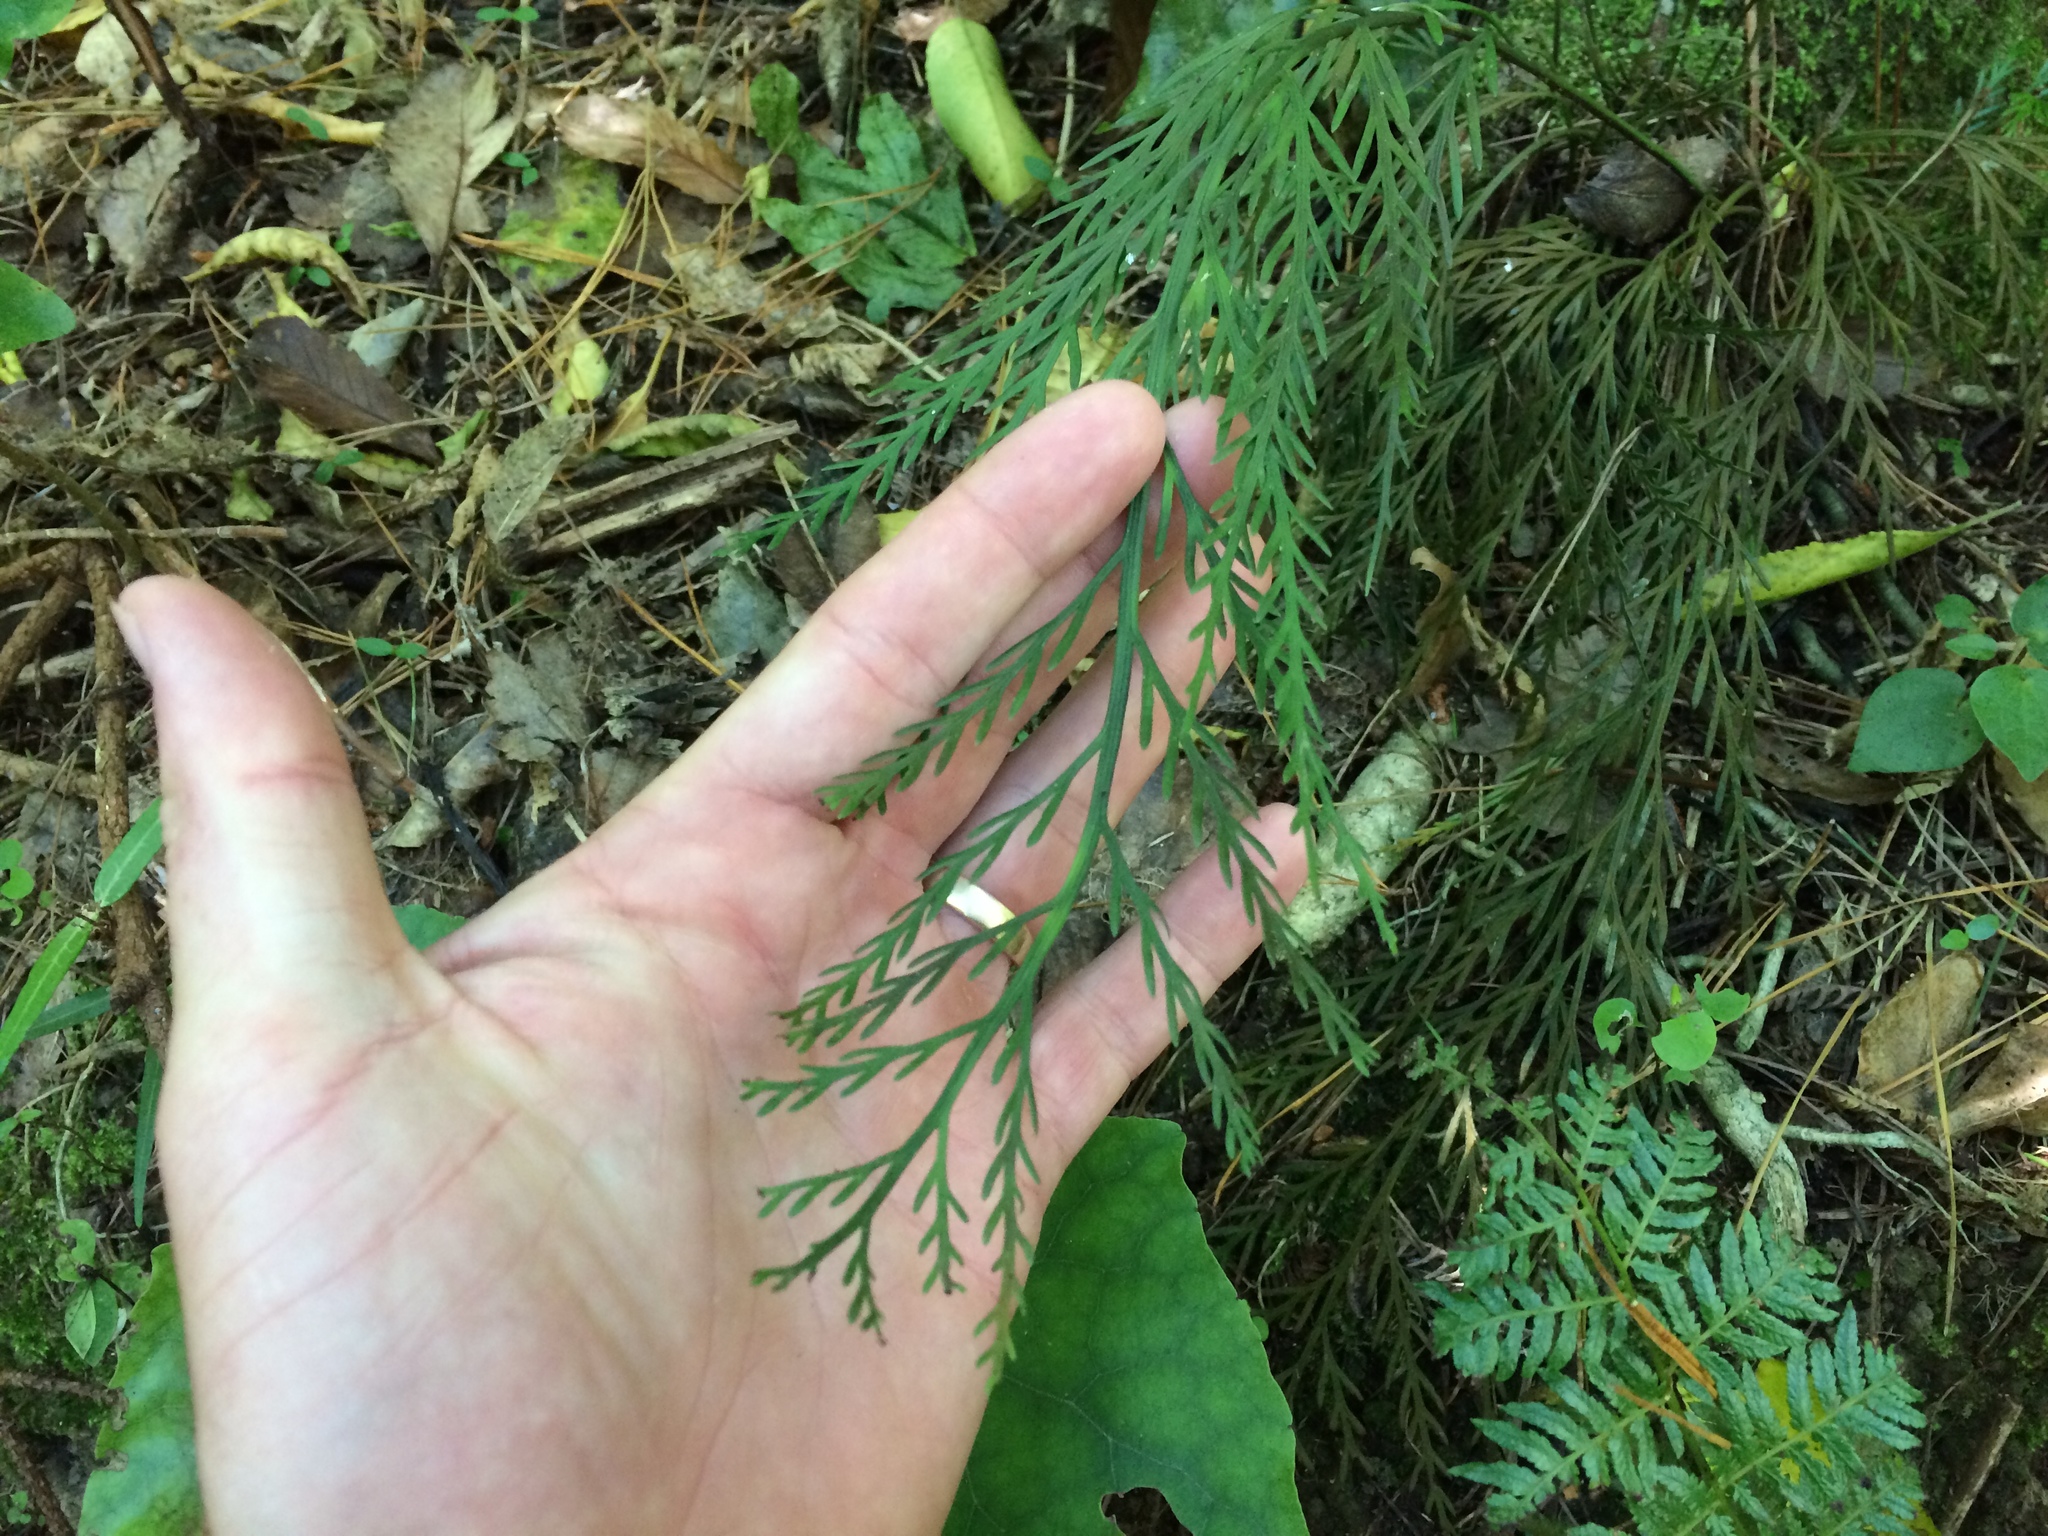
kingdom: Plantae
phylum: Tracheophyta
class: Polypodiopsida
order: Polypodiales
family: Aspleniaceae
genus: Asplenium
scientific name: Asplenium flaccidum
